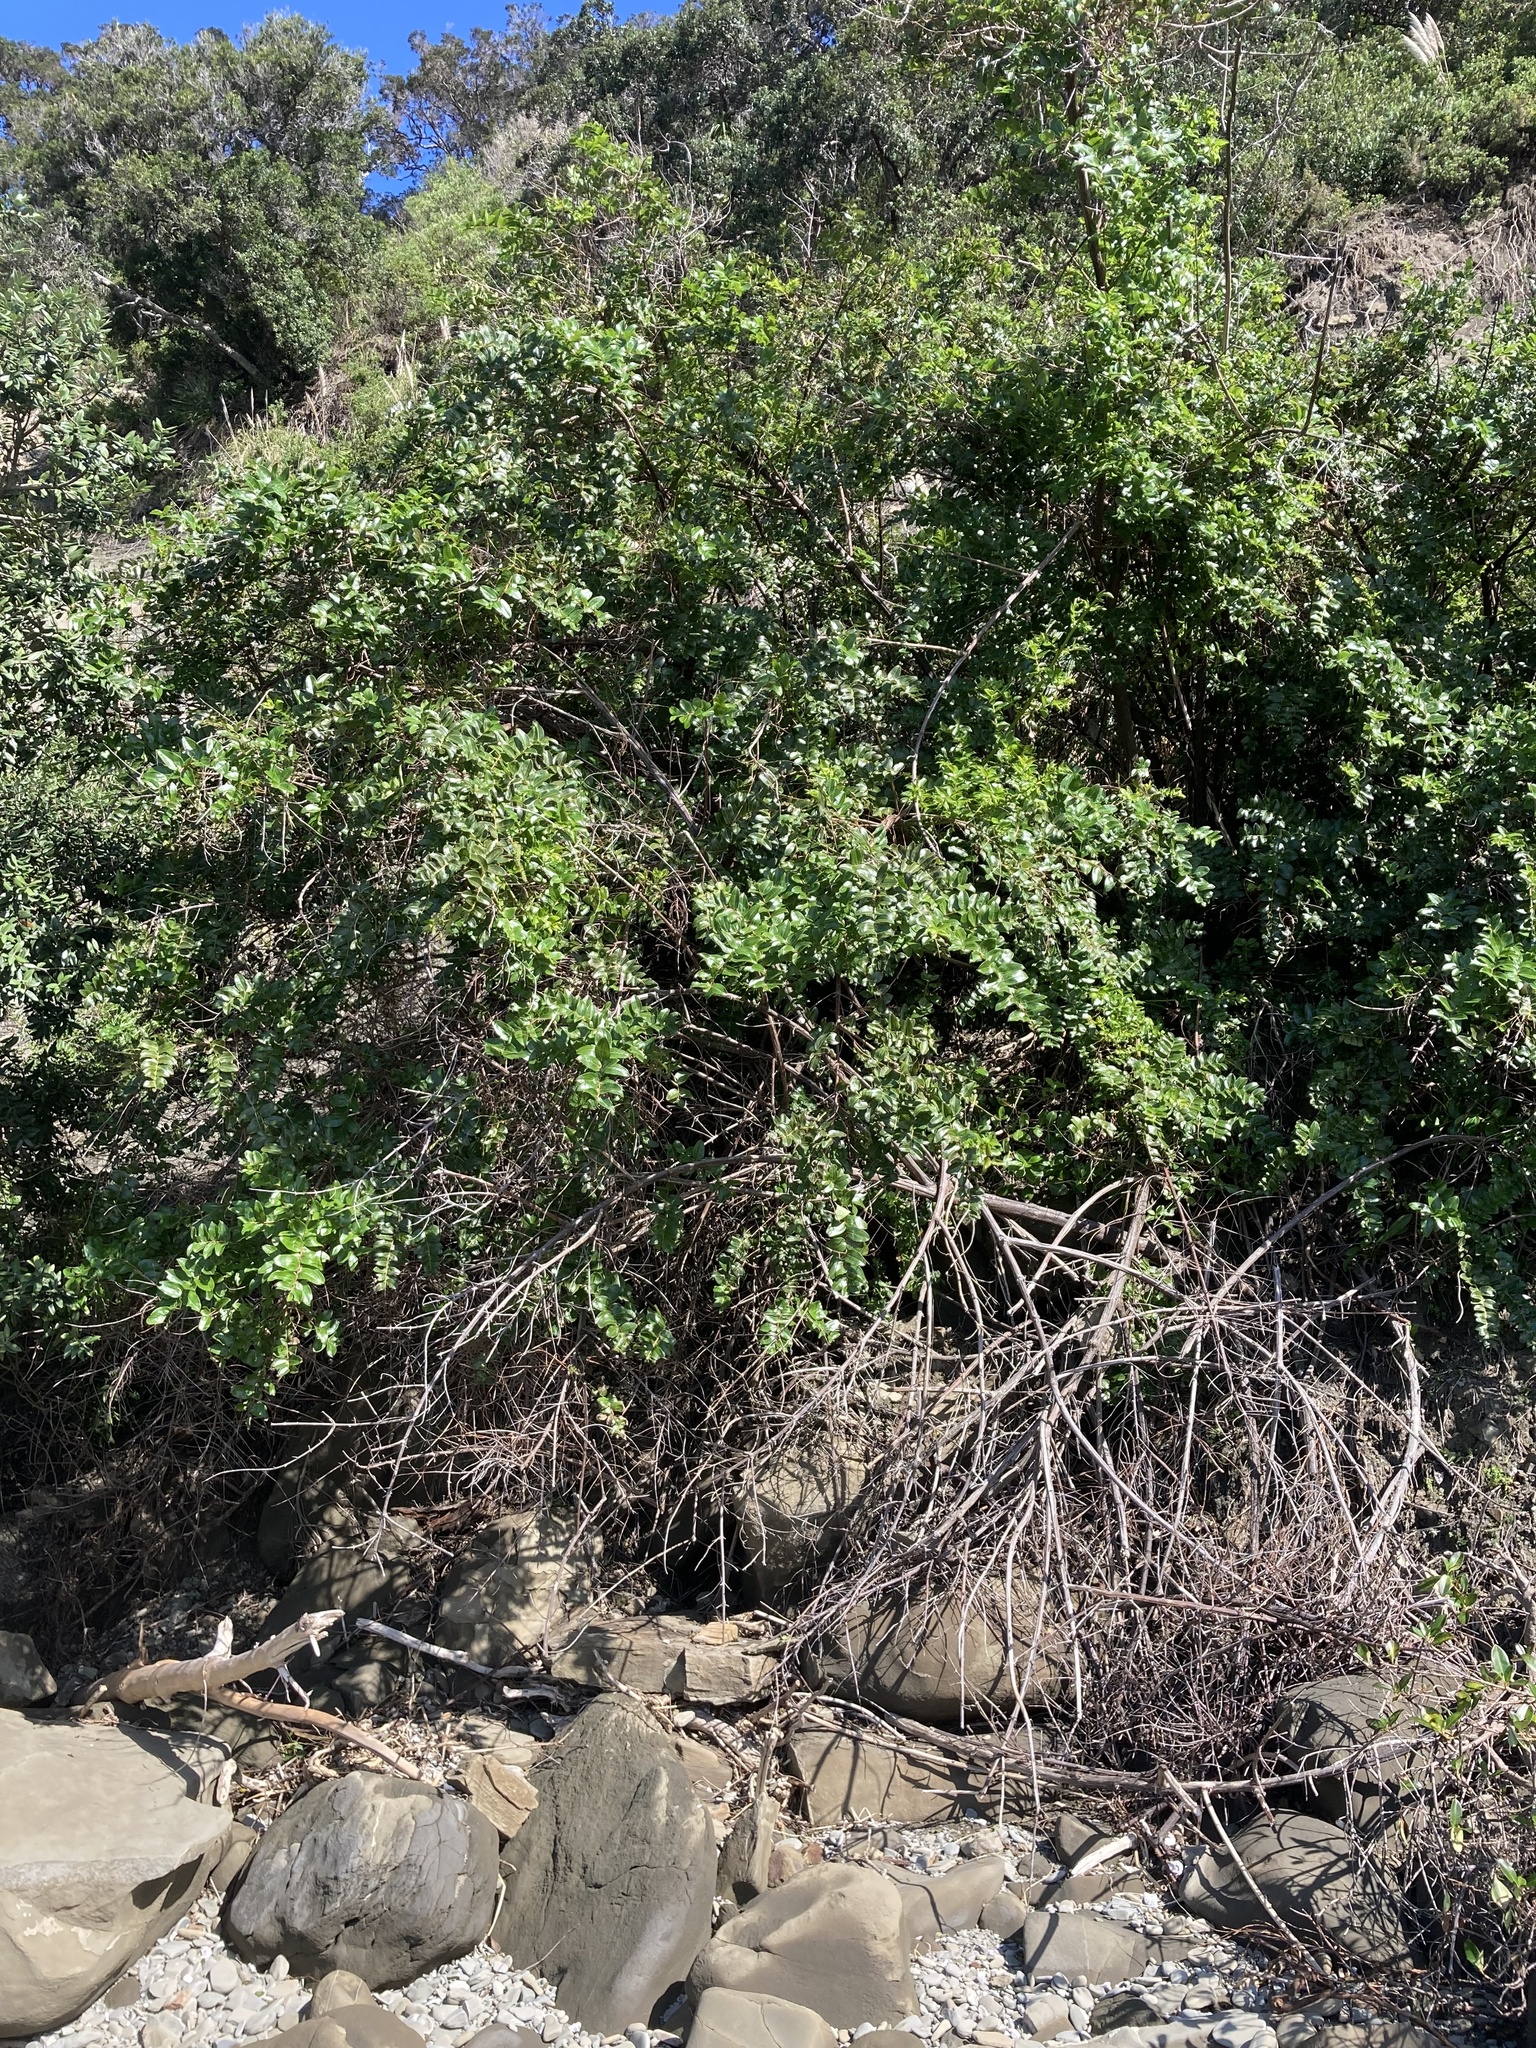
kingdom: Plantae
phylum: Tracheophyta
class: Magnoliopsida
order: Cucurbitales
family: Coriariaceae
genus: Coriaria
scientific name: Coriaria arborea
